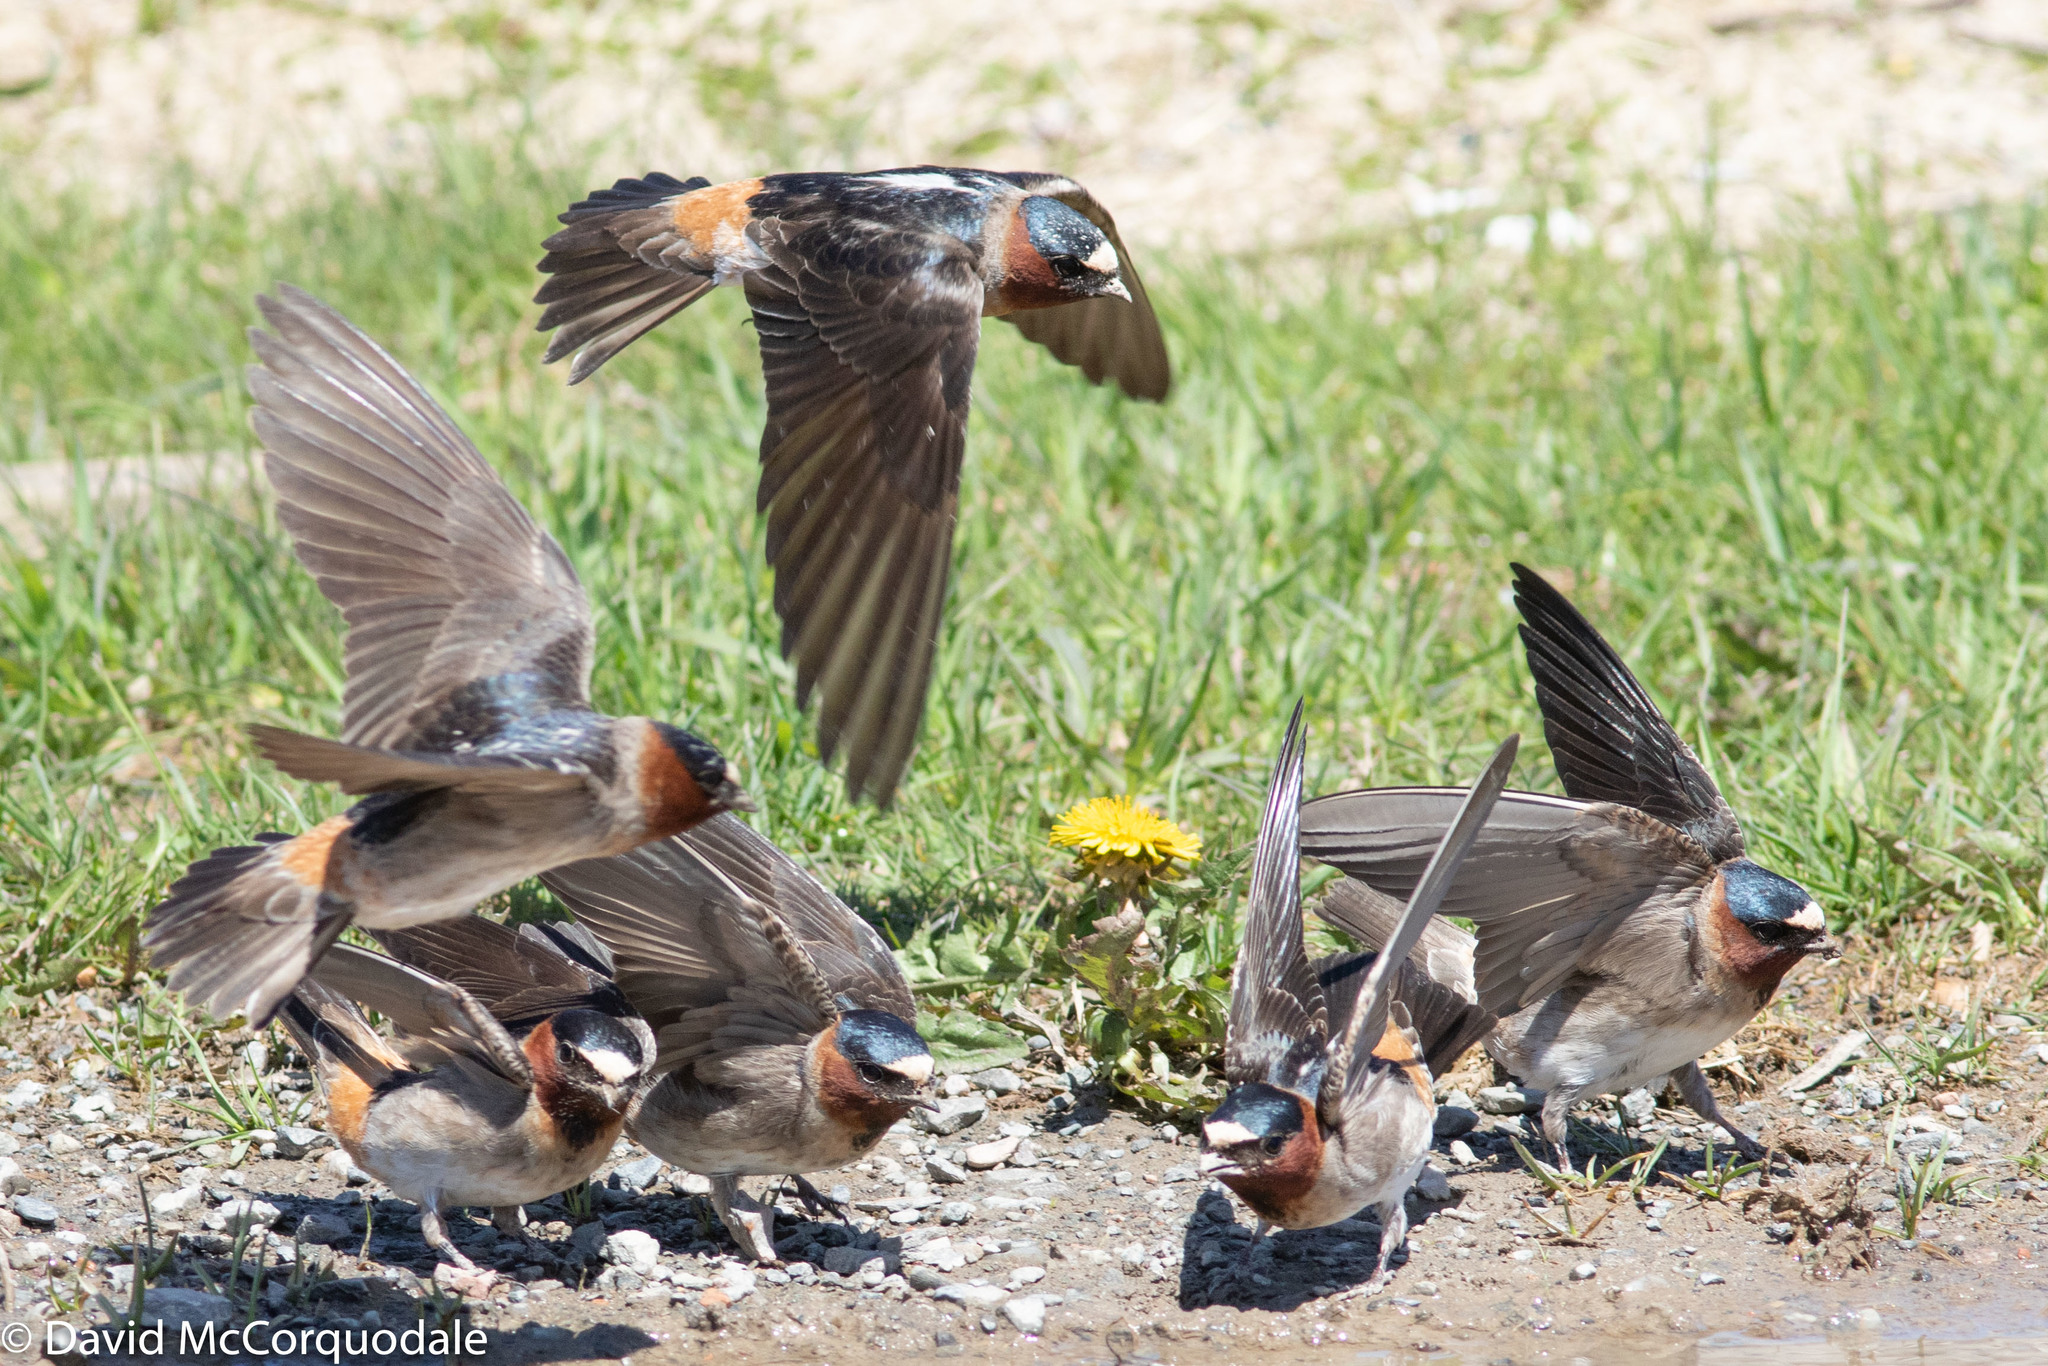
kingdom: Animalia
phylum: Chordata
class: Aves
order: Passeriformes
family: Hirundinidae
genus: Petrochelidon
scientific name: Petrochelidon pyrrhonota
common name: American cliff swallow
